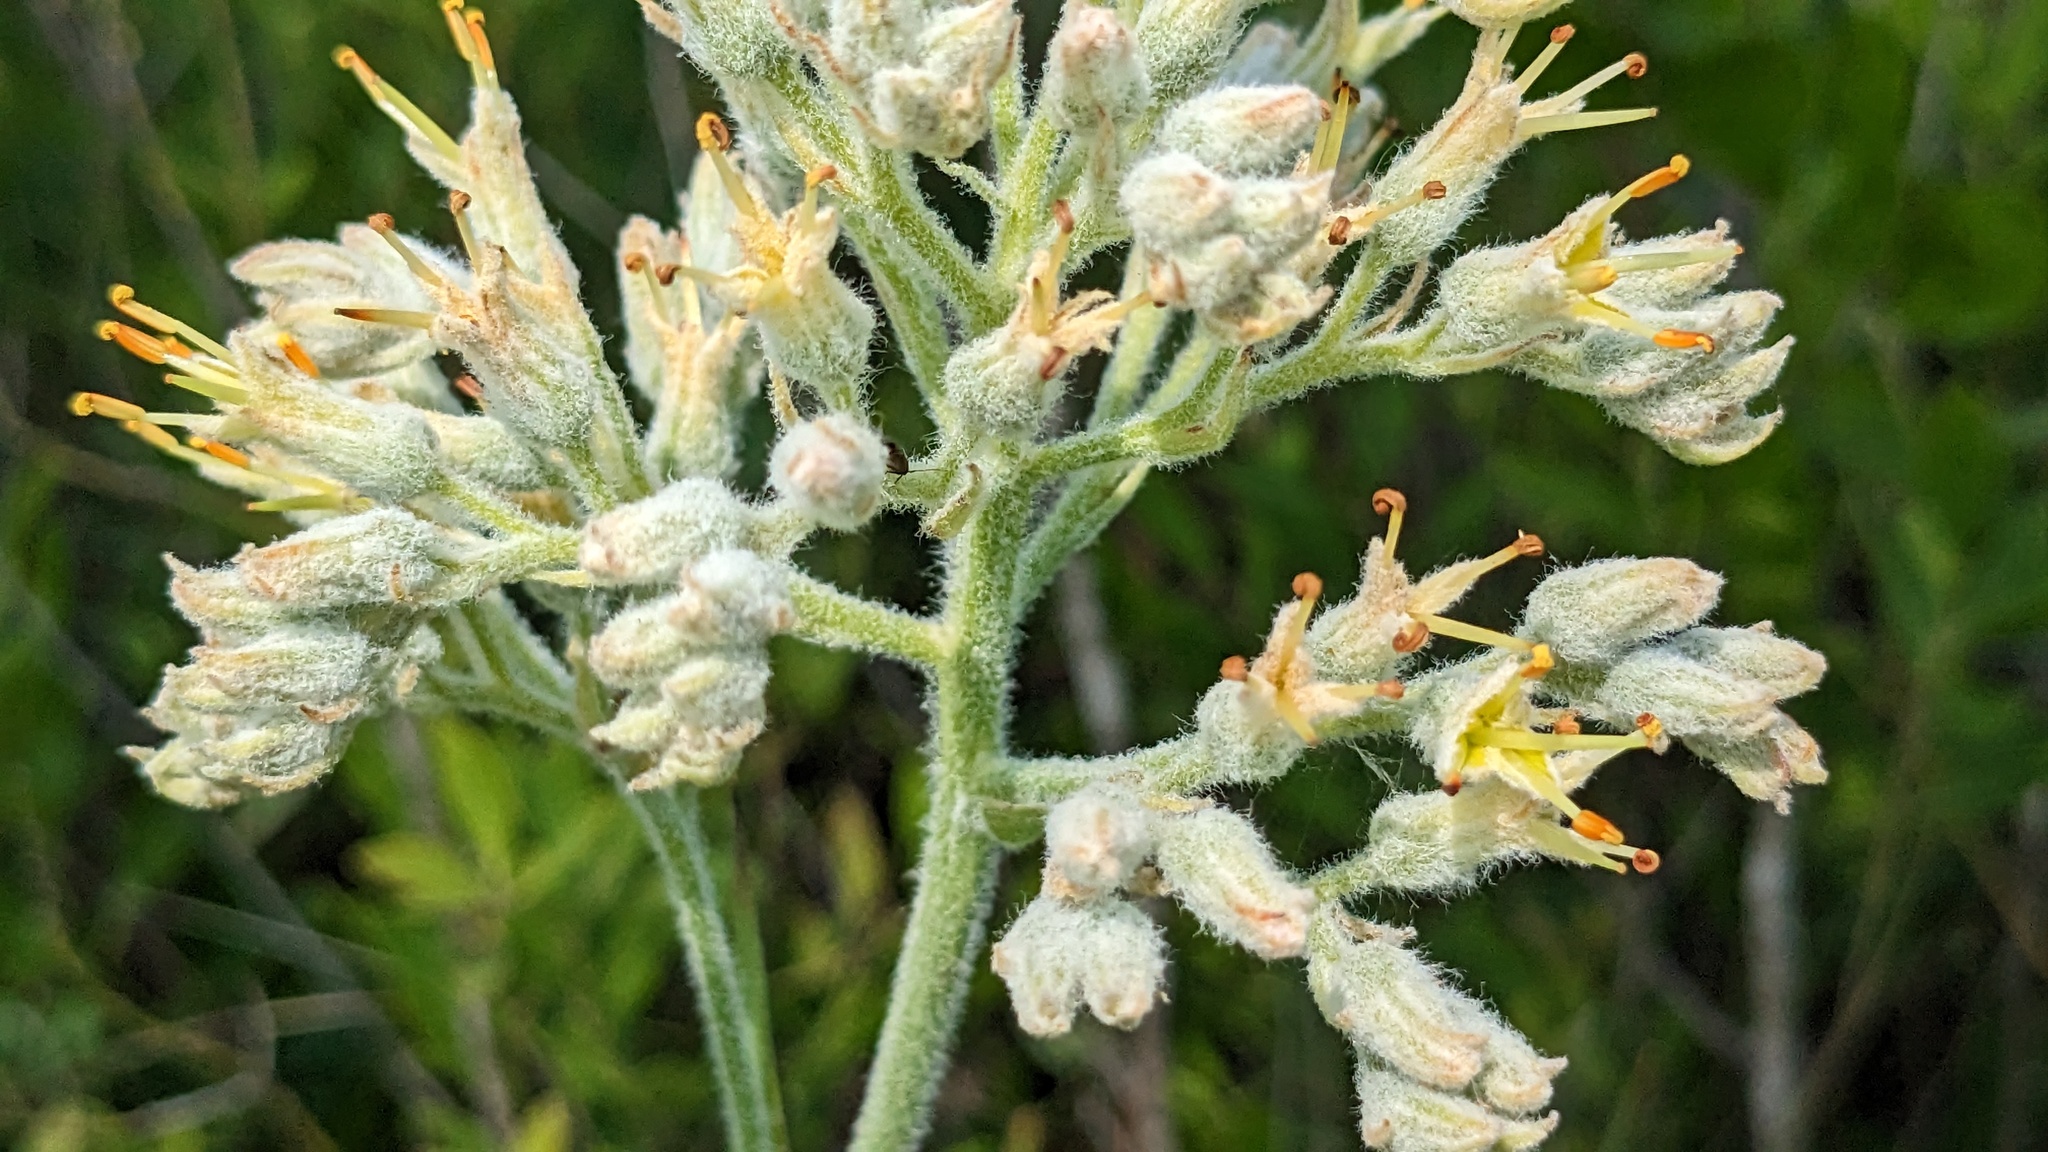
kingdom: Plantae
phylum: Tracheophyta
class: Liliopsida
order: Commelinales
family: Haemodoraceae
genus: Lachnanthes
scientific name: Lachnanthes caroliana
